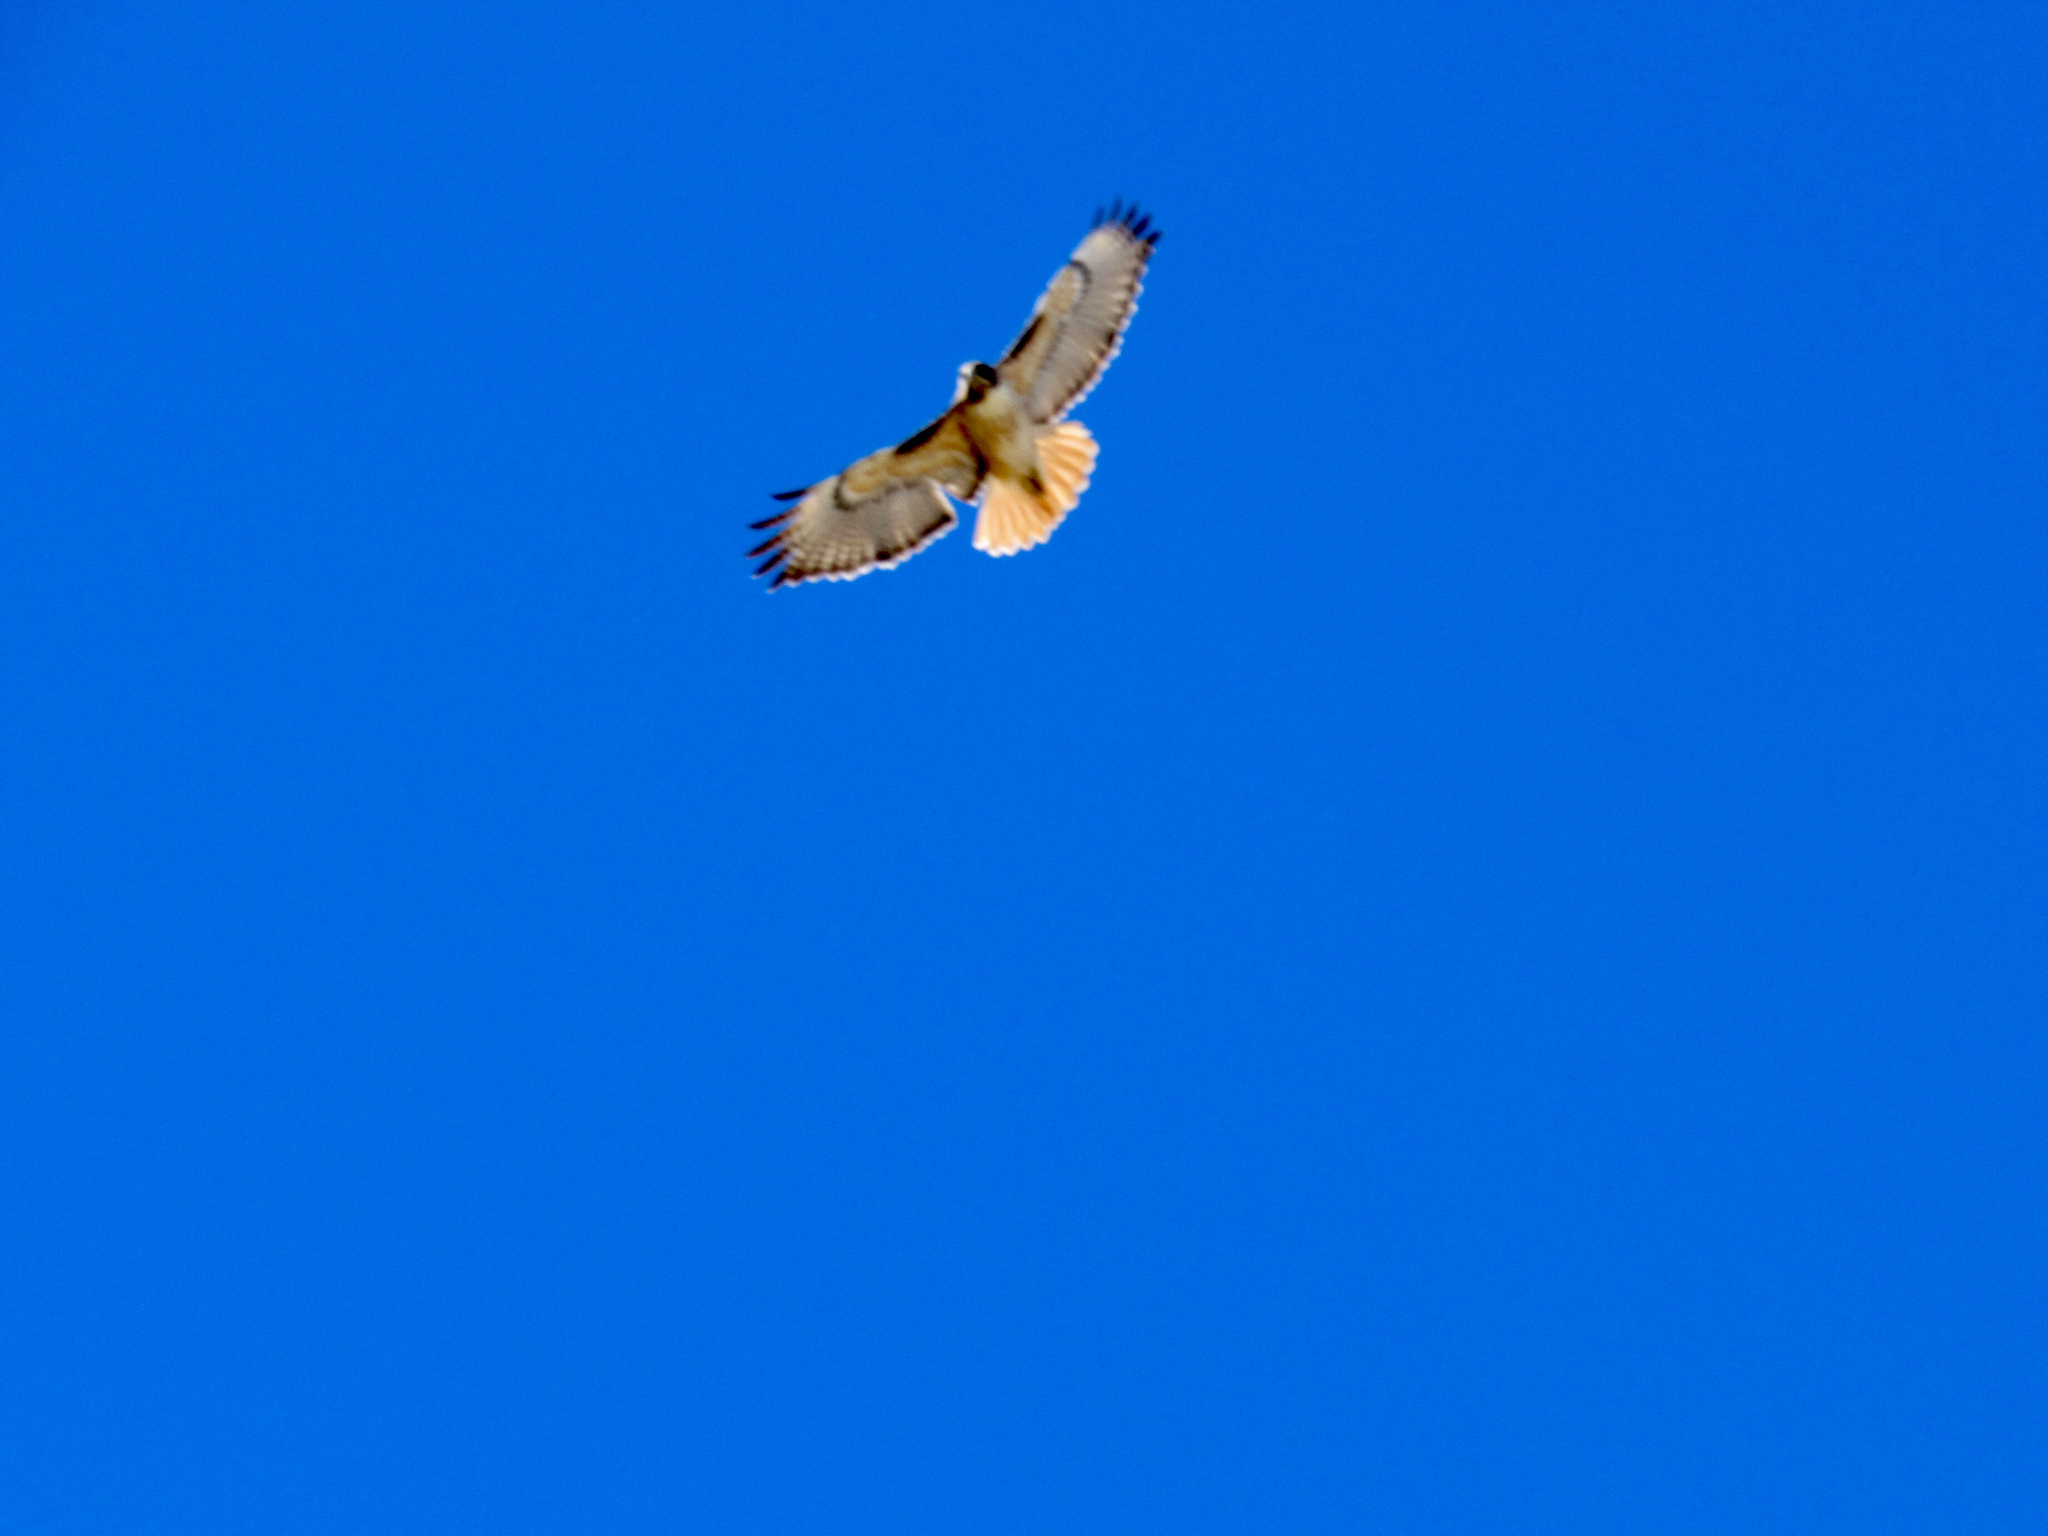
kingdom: Animalia
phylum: Chordata
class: Aves
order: Accipitriformes
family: Accipitridae
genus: Buteo
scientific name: Buteo jamaicensis
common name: Red-tailed hawk
